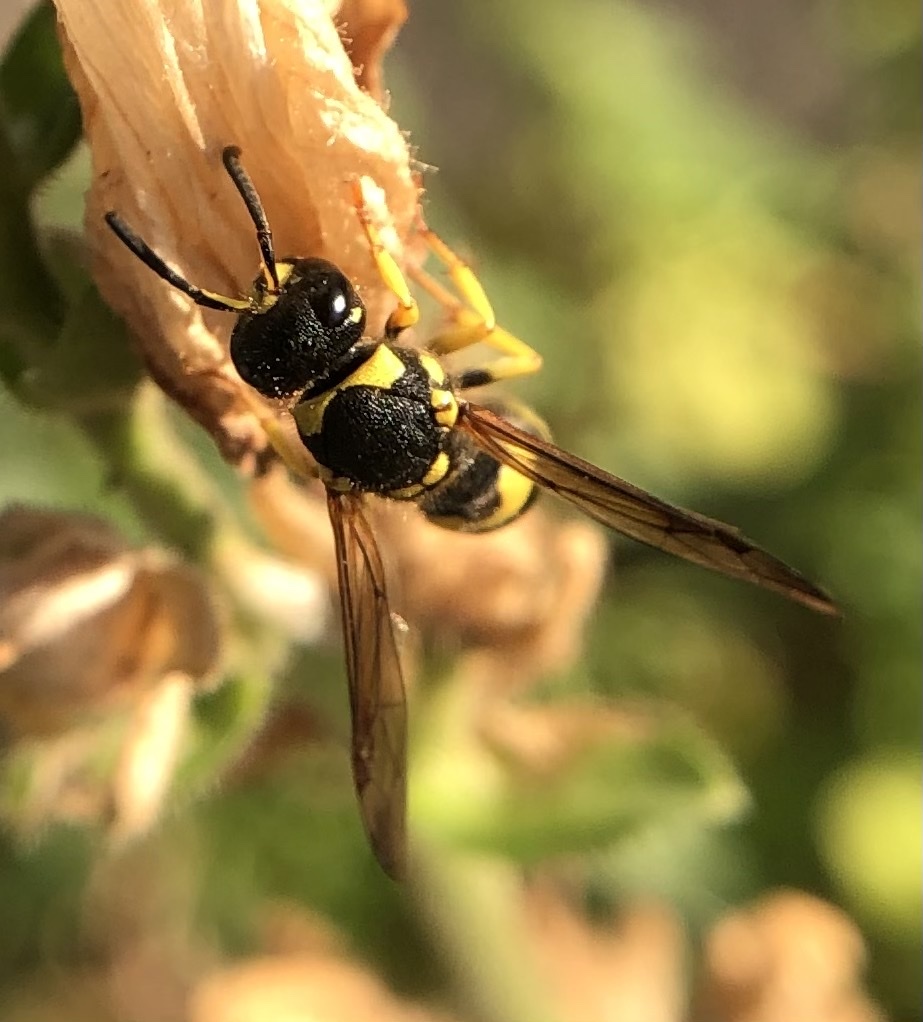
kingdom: Animalia
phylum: Arthropoda
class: Insecta
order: Hymenoptera
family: Vespidae
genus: Ancistrocerus
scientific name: Ancistrocerus gazella
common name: European tube wasp
